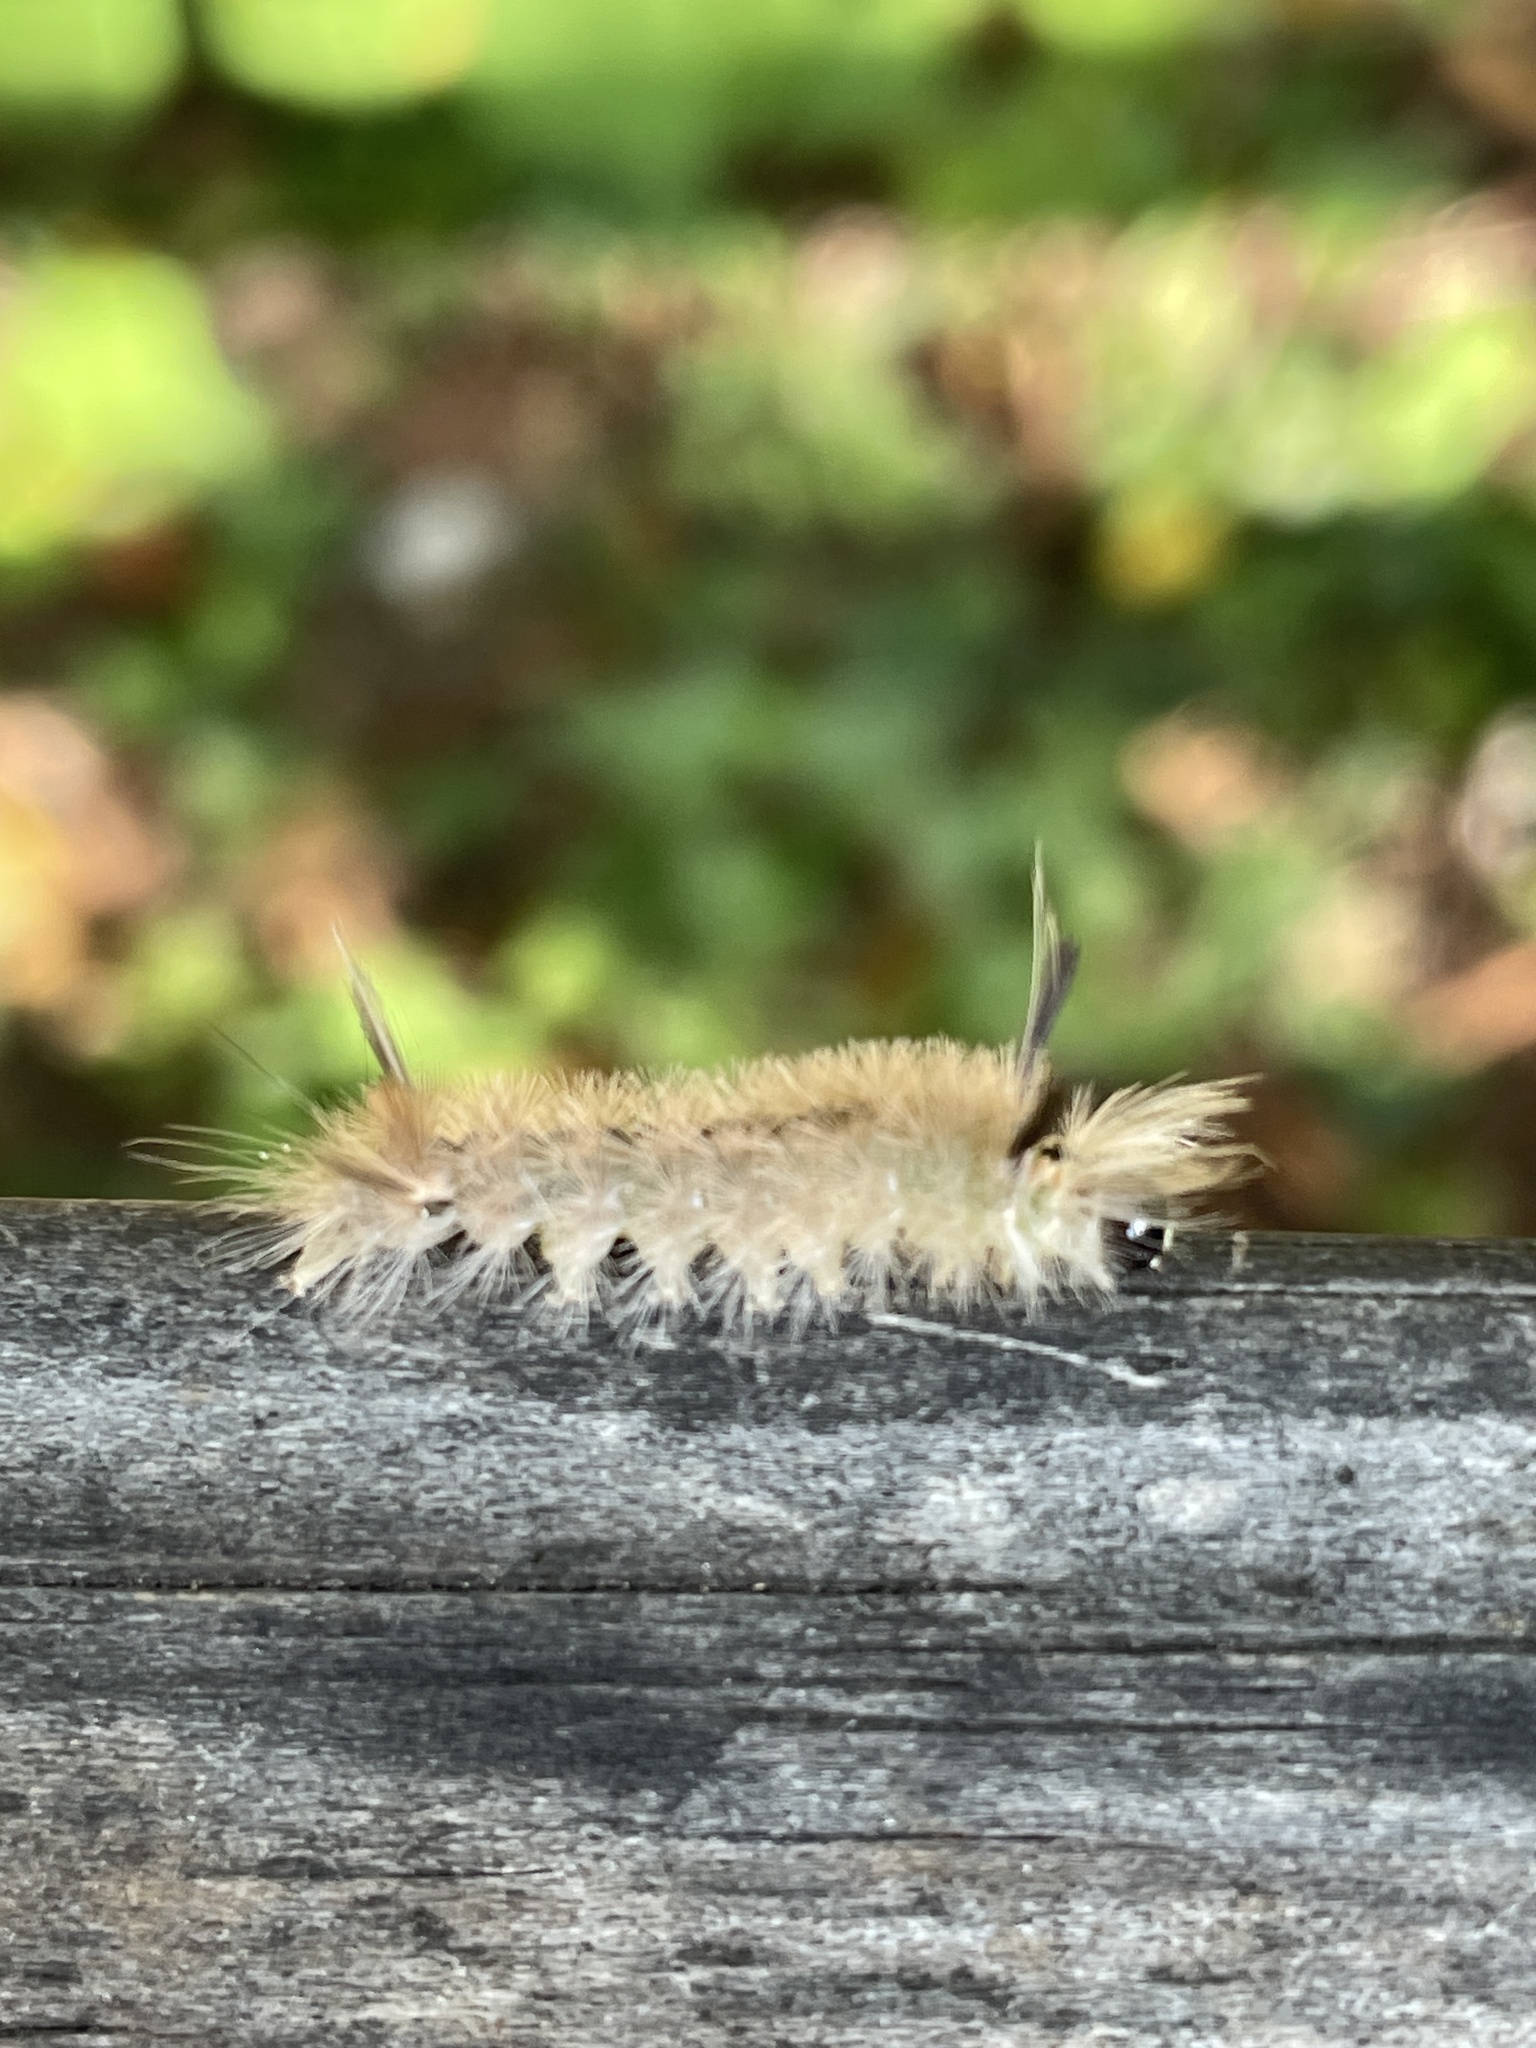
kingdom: Animalia
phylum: Arthropoda
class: Insecta
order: Lepidoptera
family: Erebidae
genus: Halysidota
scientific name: Halysidota tessellaris
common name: Banded tussock moth
